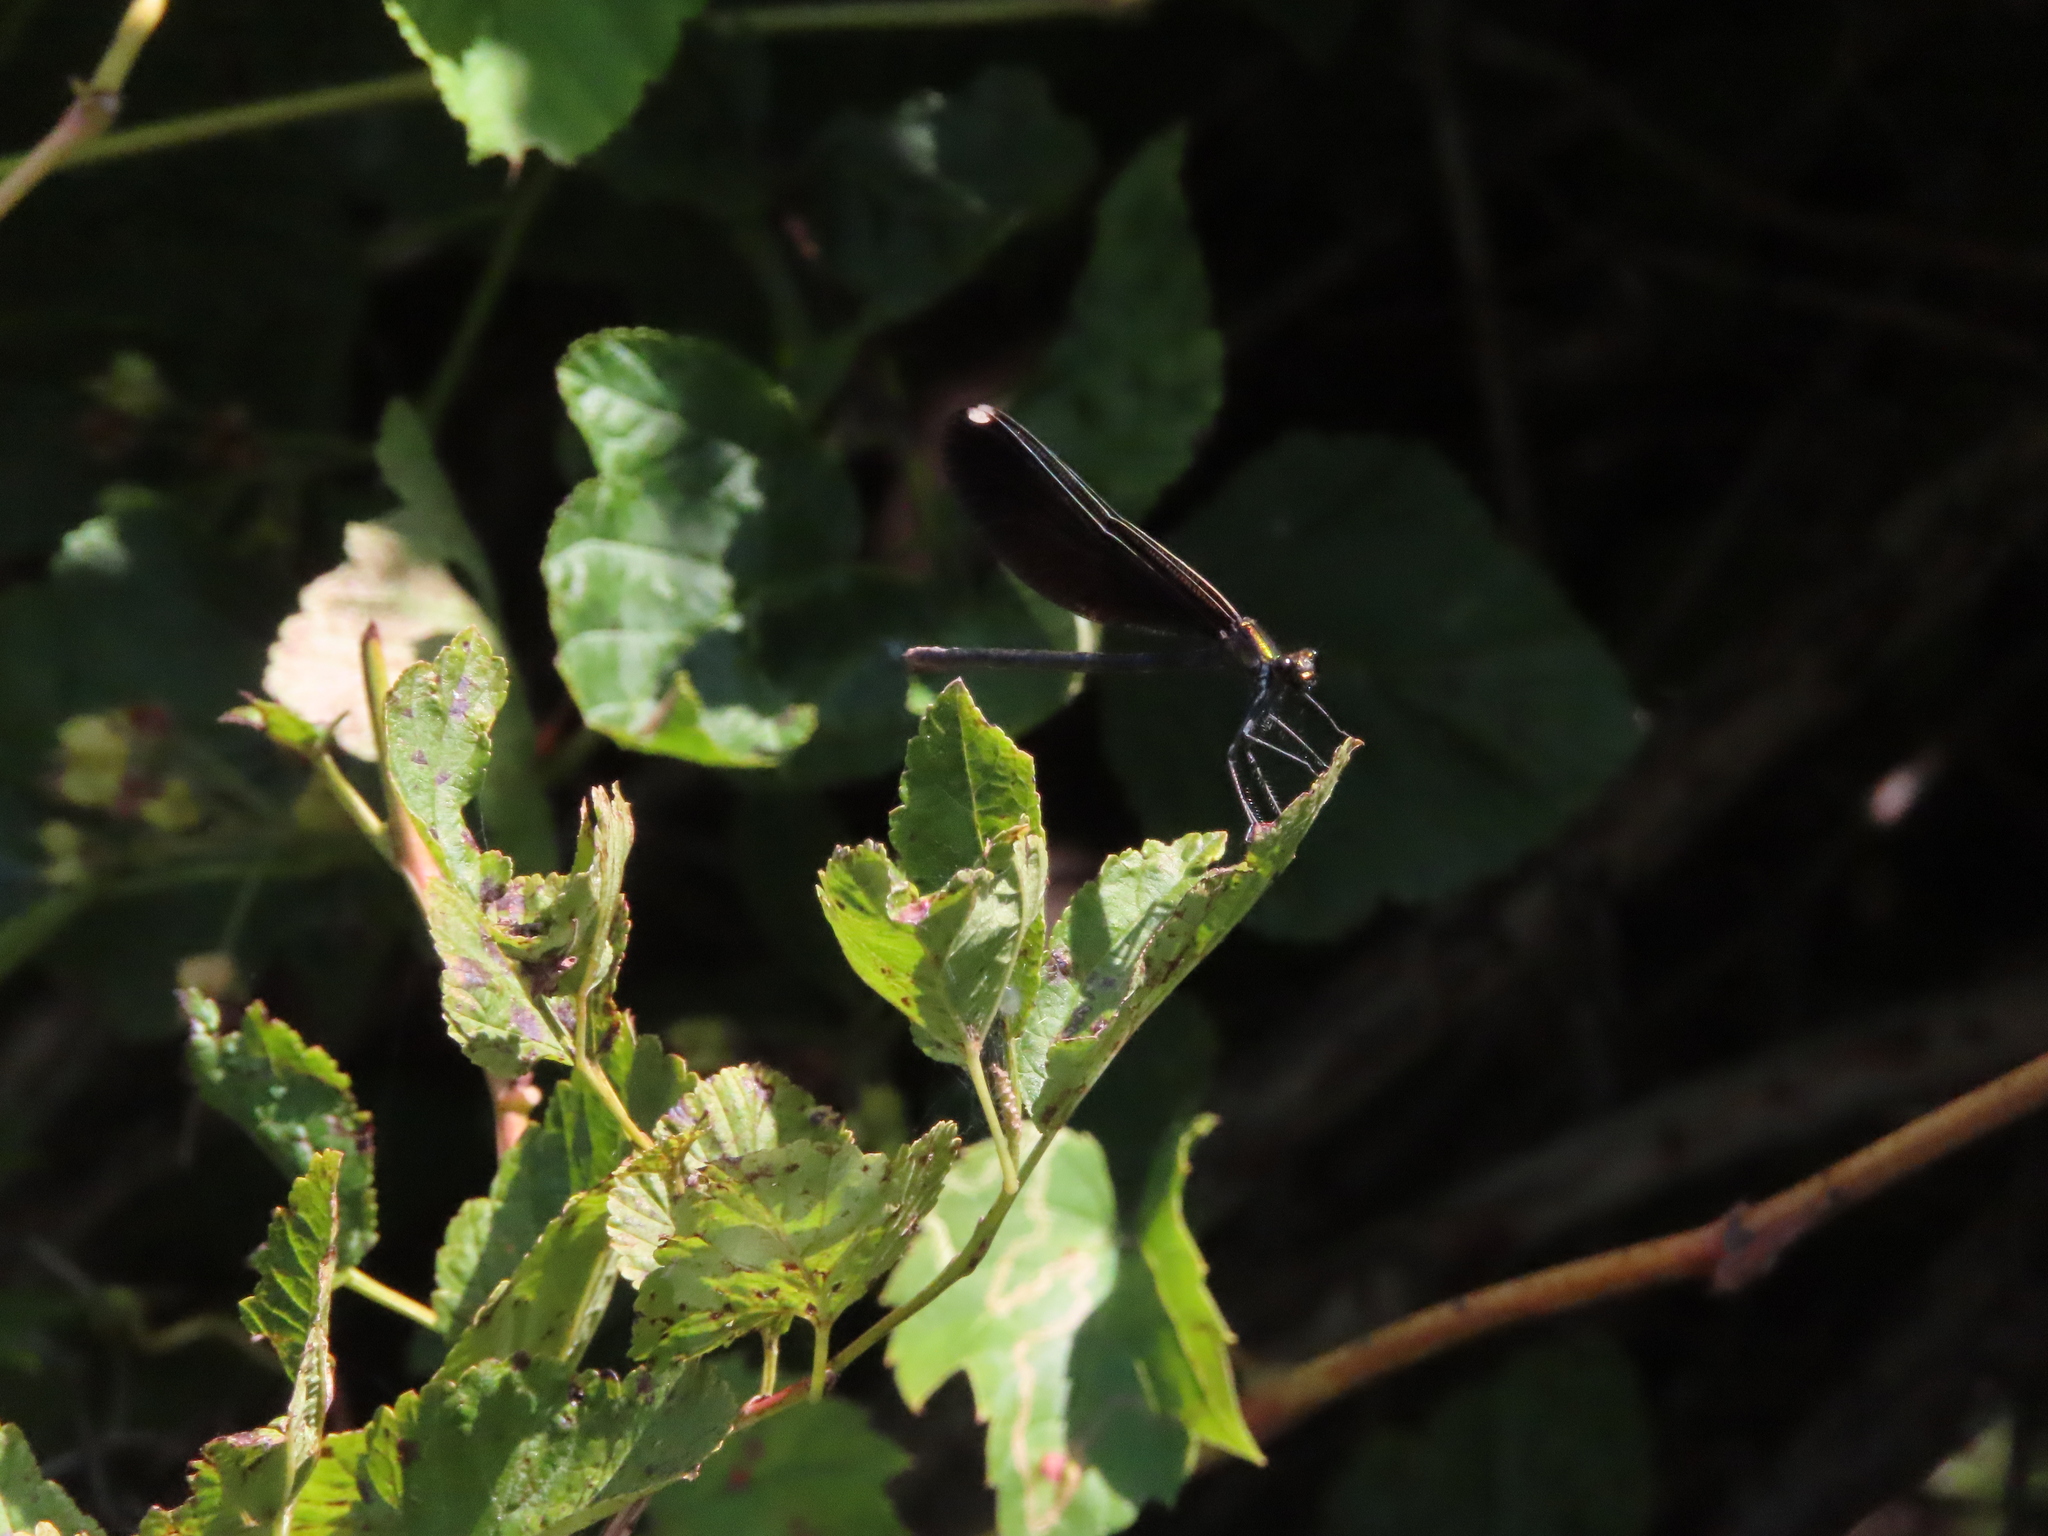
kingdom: Animalia
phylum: Arthropoda
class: Insecta
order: Odonata
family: Calopterygidae
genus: Calopteryx
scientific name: Calopteryx maculata
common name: Ebony jewelwing
